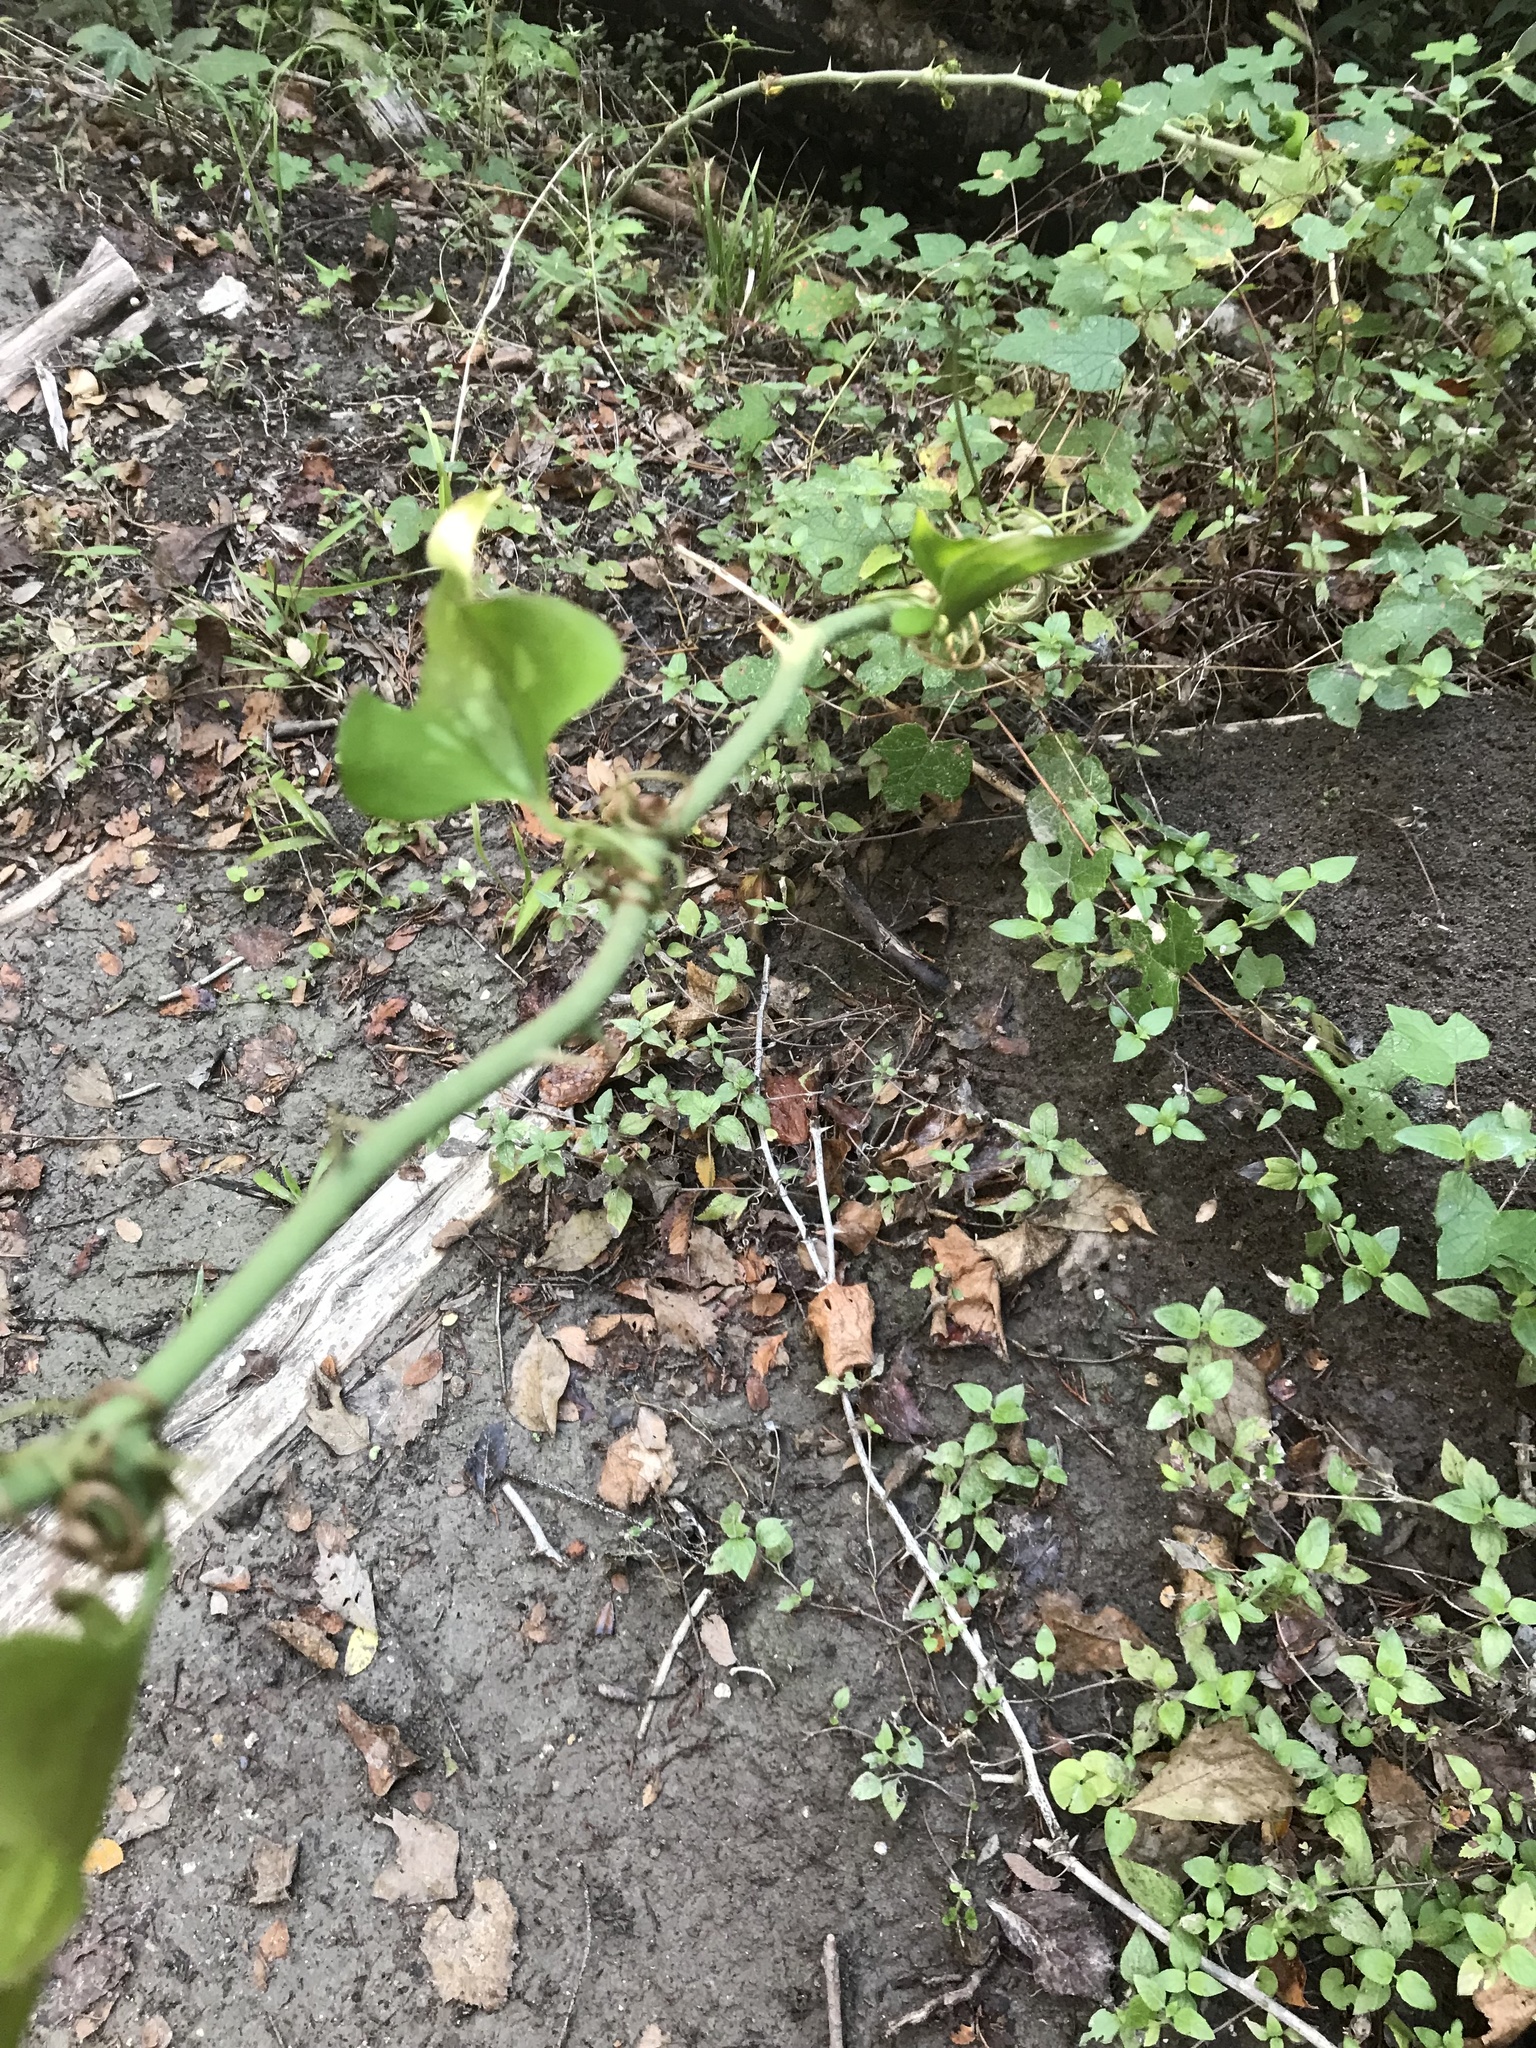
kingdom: Plantae
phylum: Tracheophyta
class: Liliopsida
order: Liliales
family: Smilacaceae
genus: Smilax
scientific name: Smilax bona-nox
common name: Catbrier
